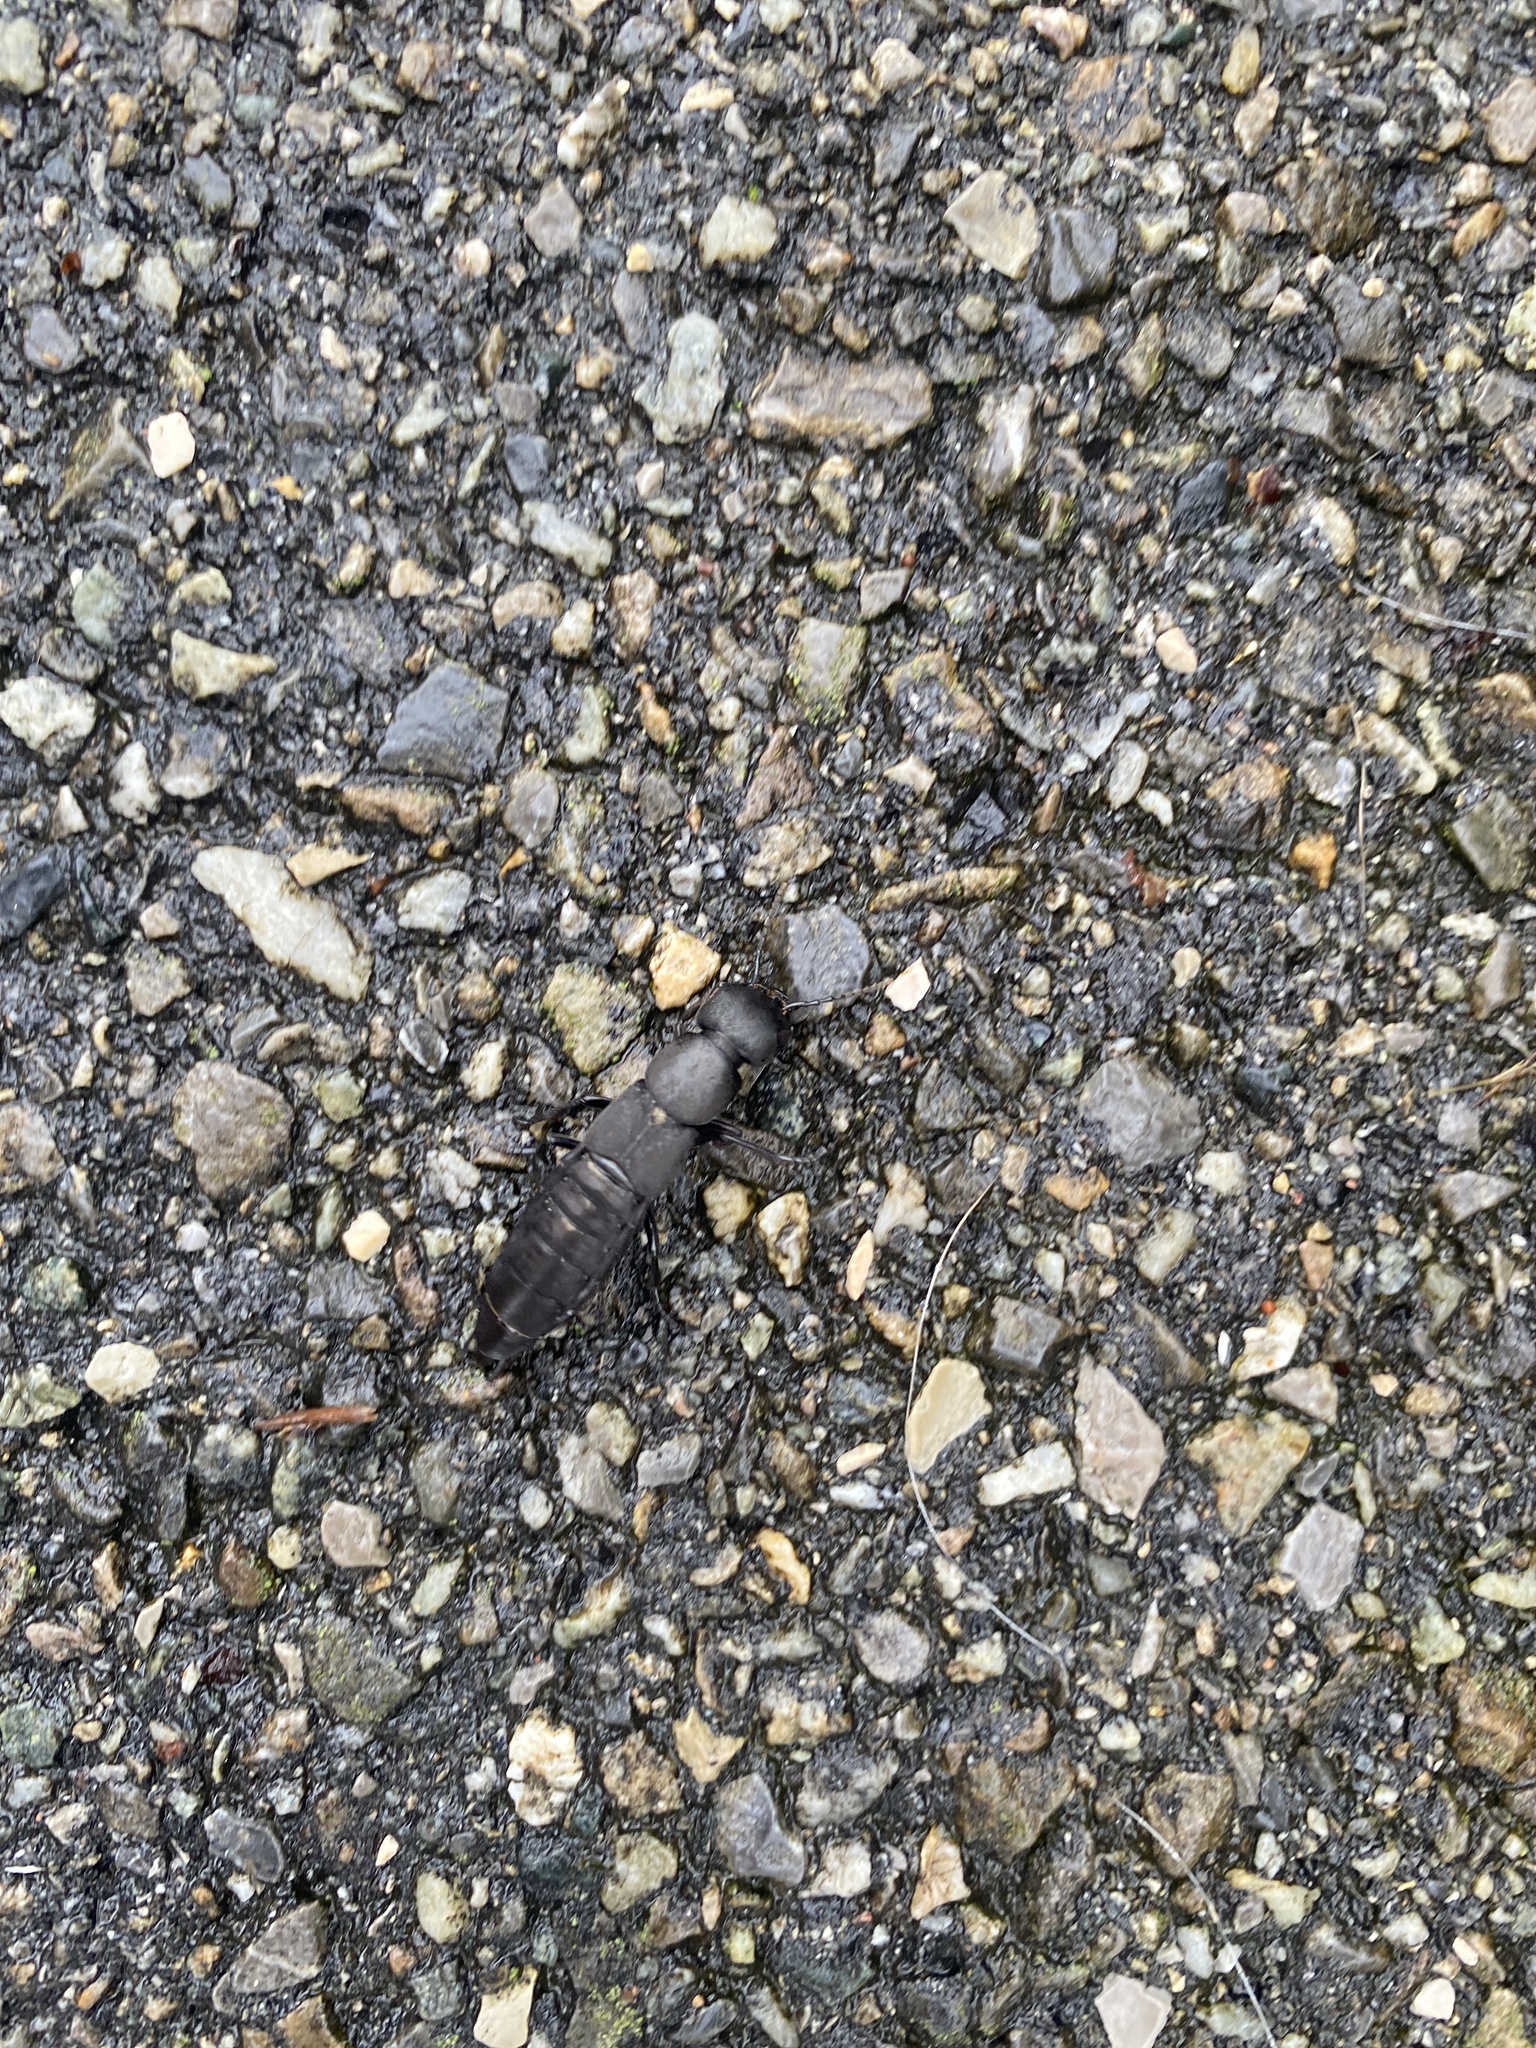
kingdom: Animalia
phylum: Arthropoda
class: Insecta
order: Coleoptera
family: Staphylinidae
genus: Ocypus
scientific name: Ocypus olens
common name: Devil's coach-horse
